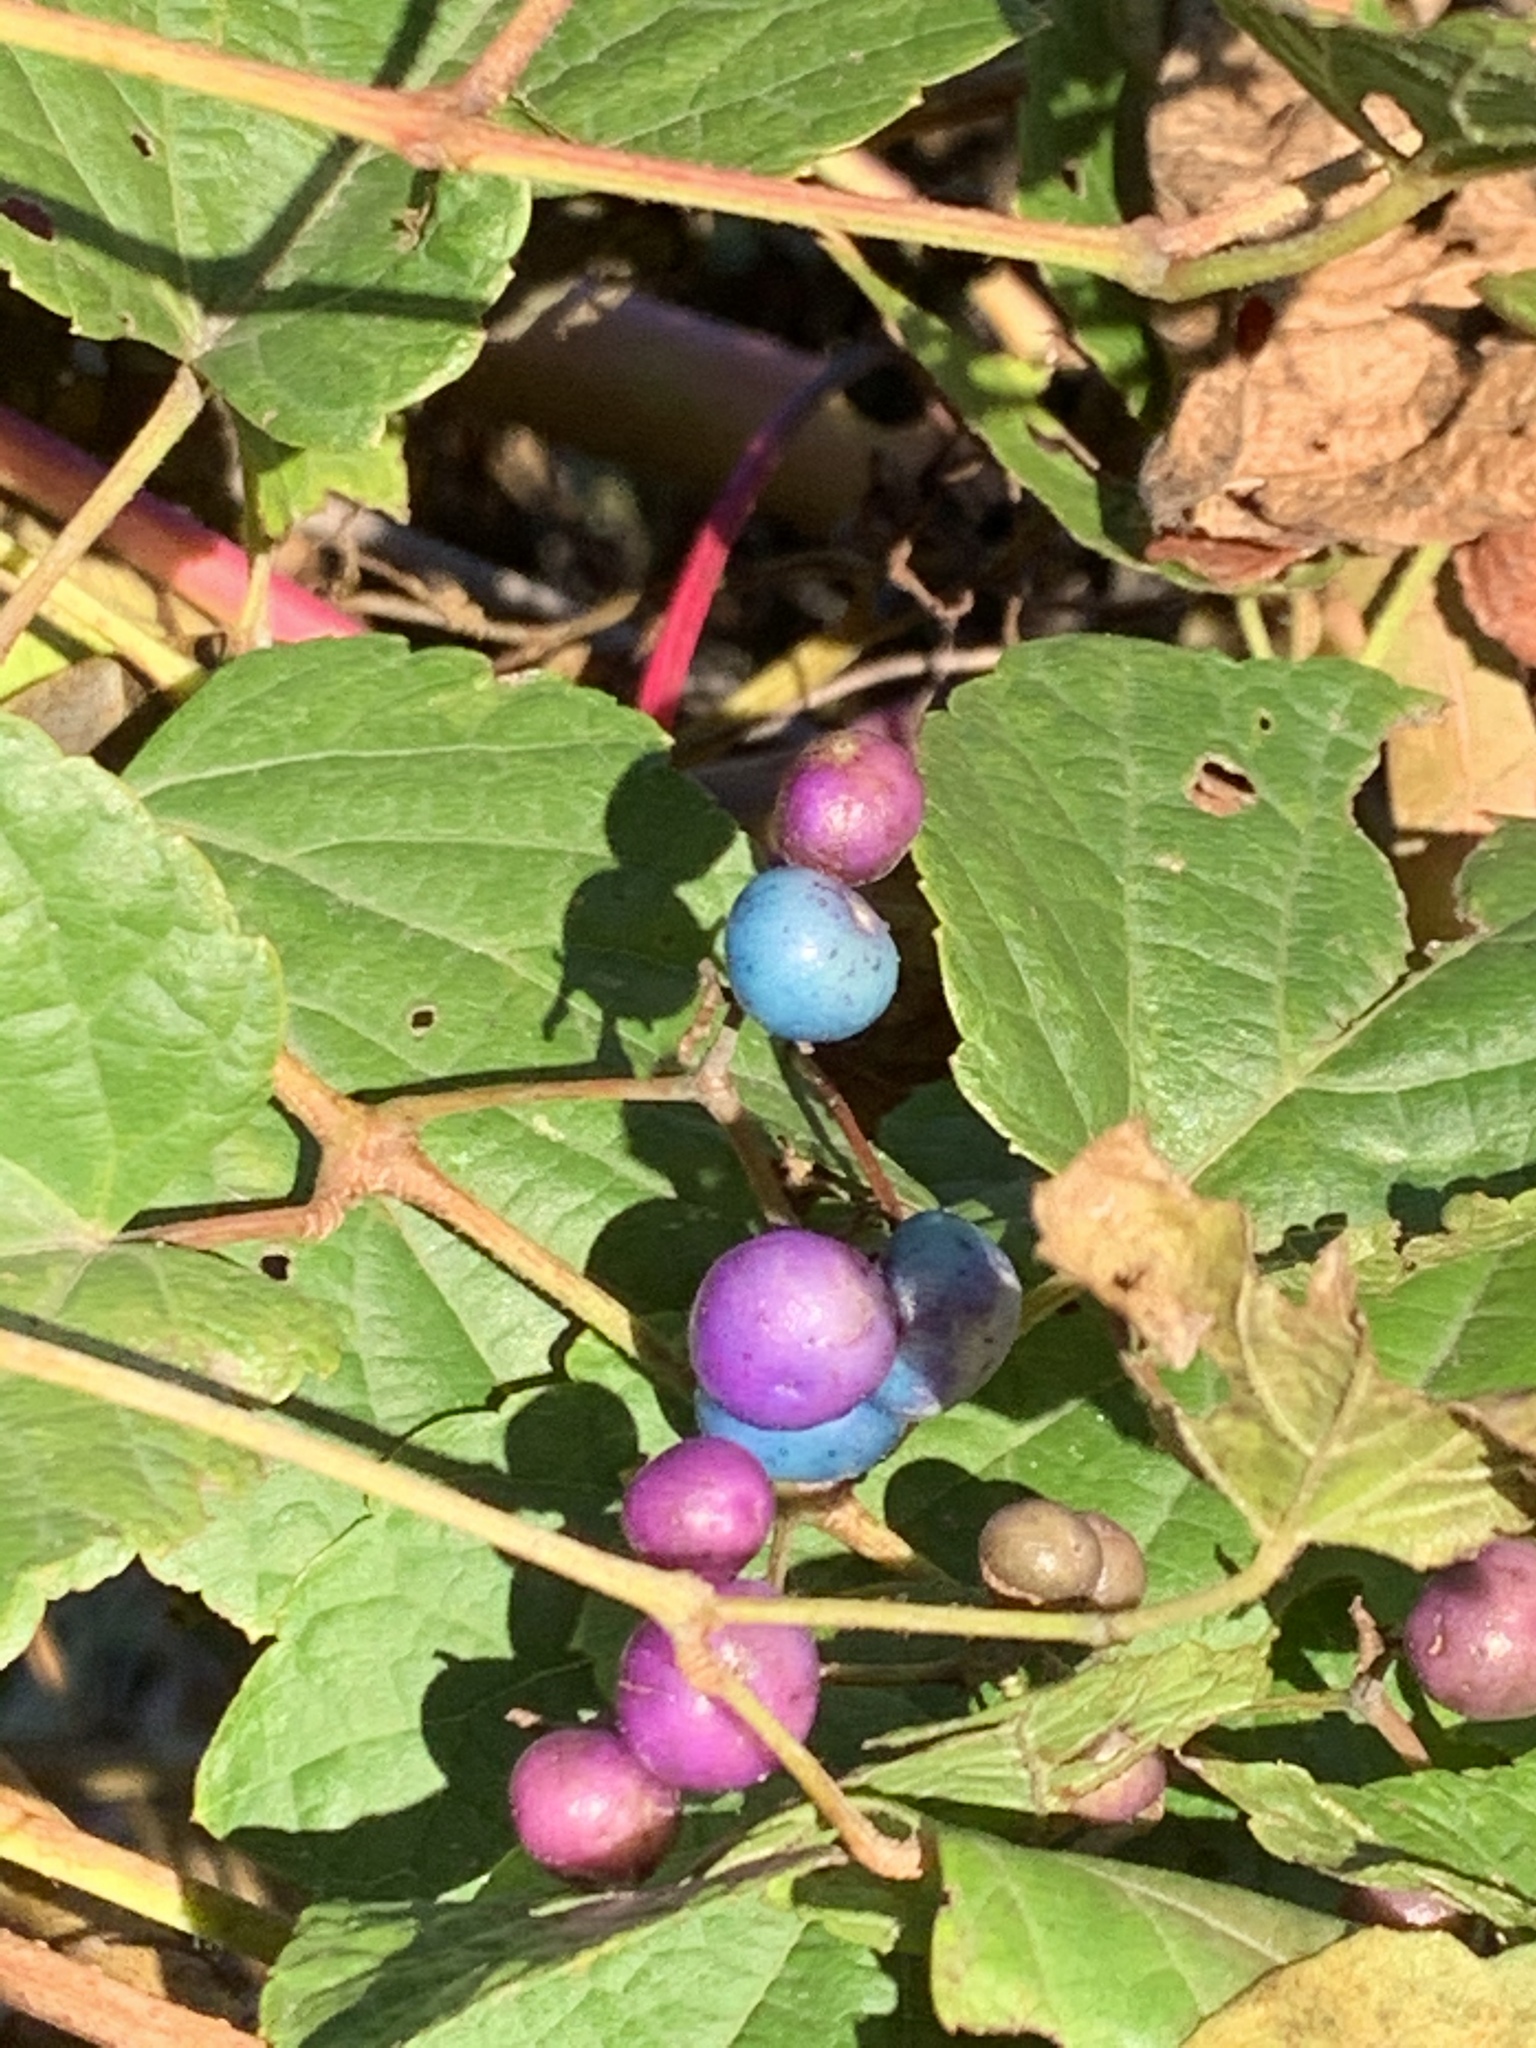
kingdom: Plantae
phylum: Tracheophyta
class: Magnoliopsida
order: Vitales
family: Vitaceae
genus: Ampelopsis
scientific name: Ampelopsis glandulosa
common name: Amur peppervine
